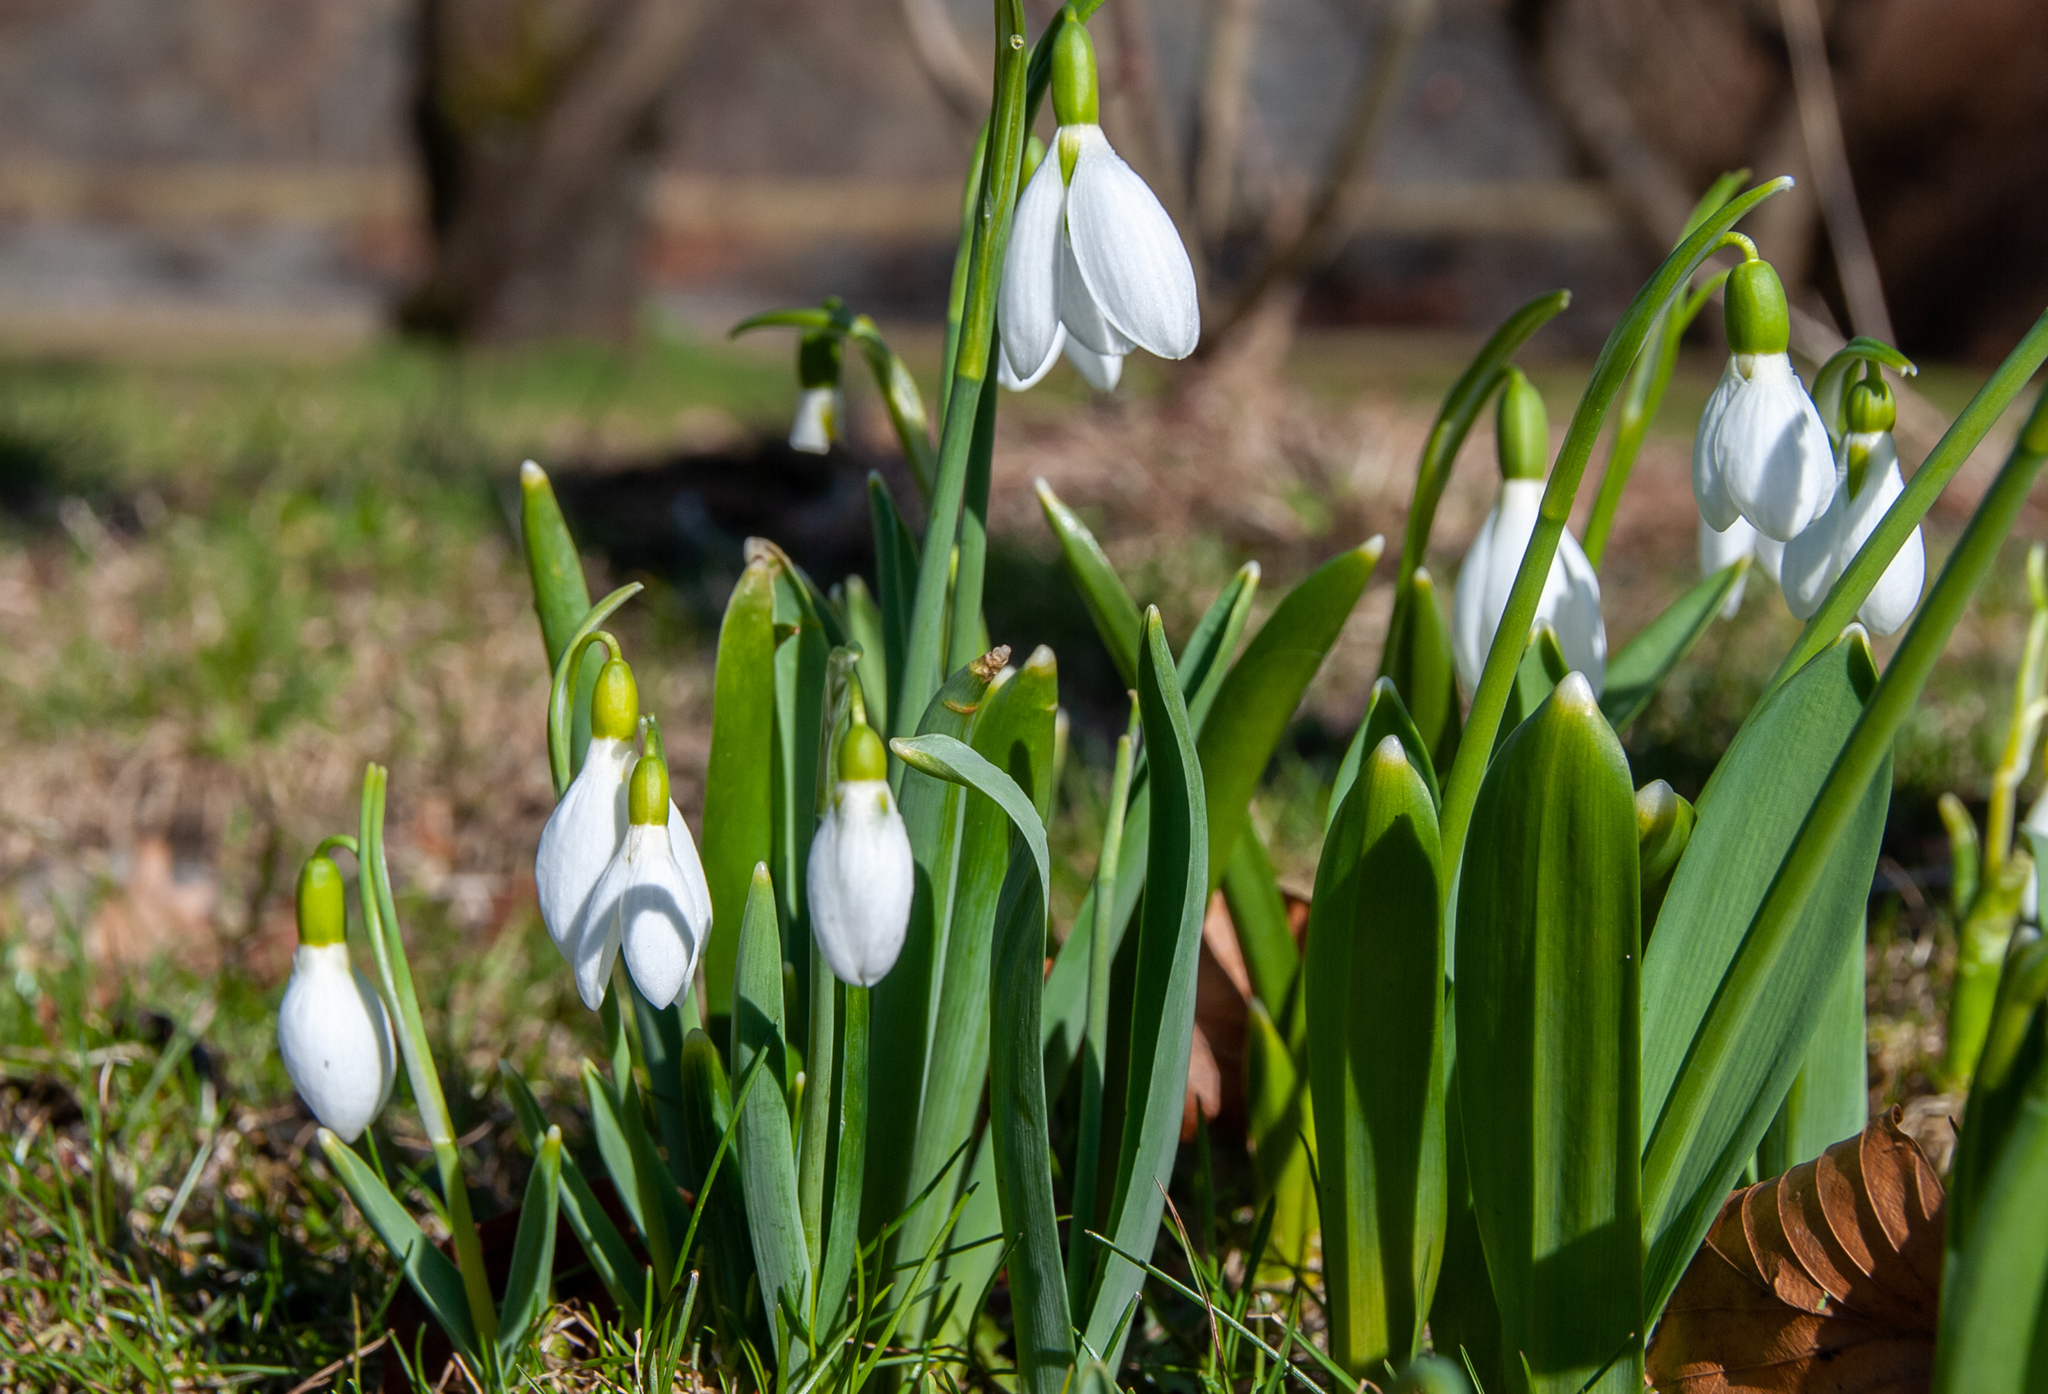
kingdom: Plantae
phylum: Tracheophyta
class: Liliopsida
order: Asparagales
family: Amaryllidaceae
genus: Galanthus
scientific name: Galanthus elwesii
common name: Greater snowdrop
